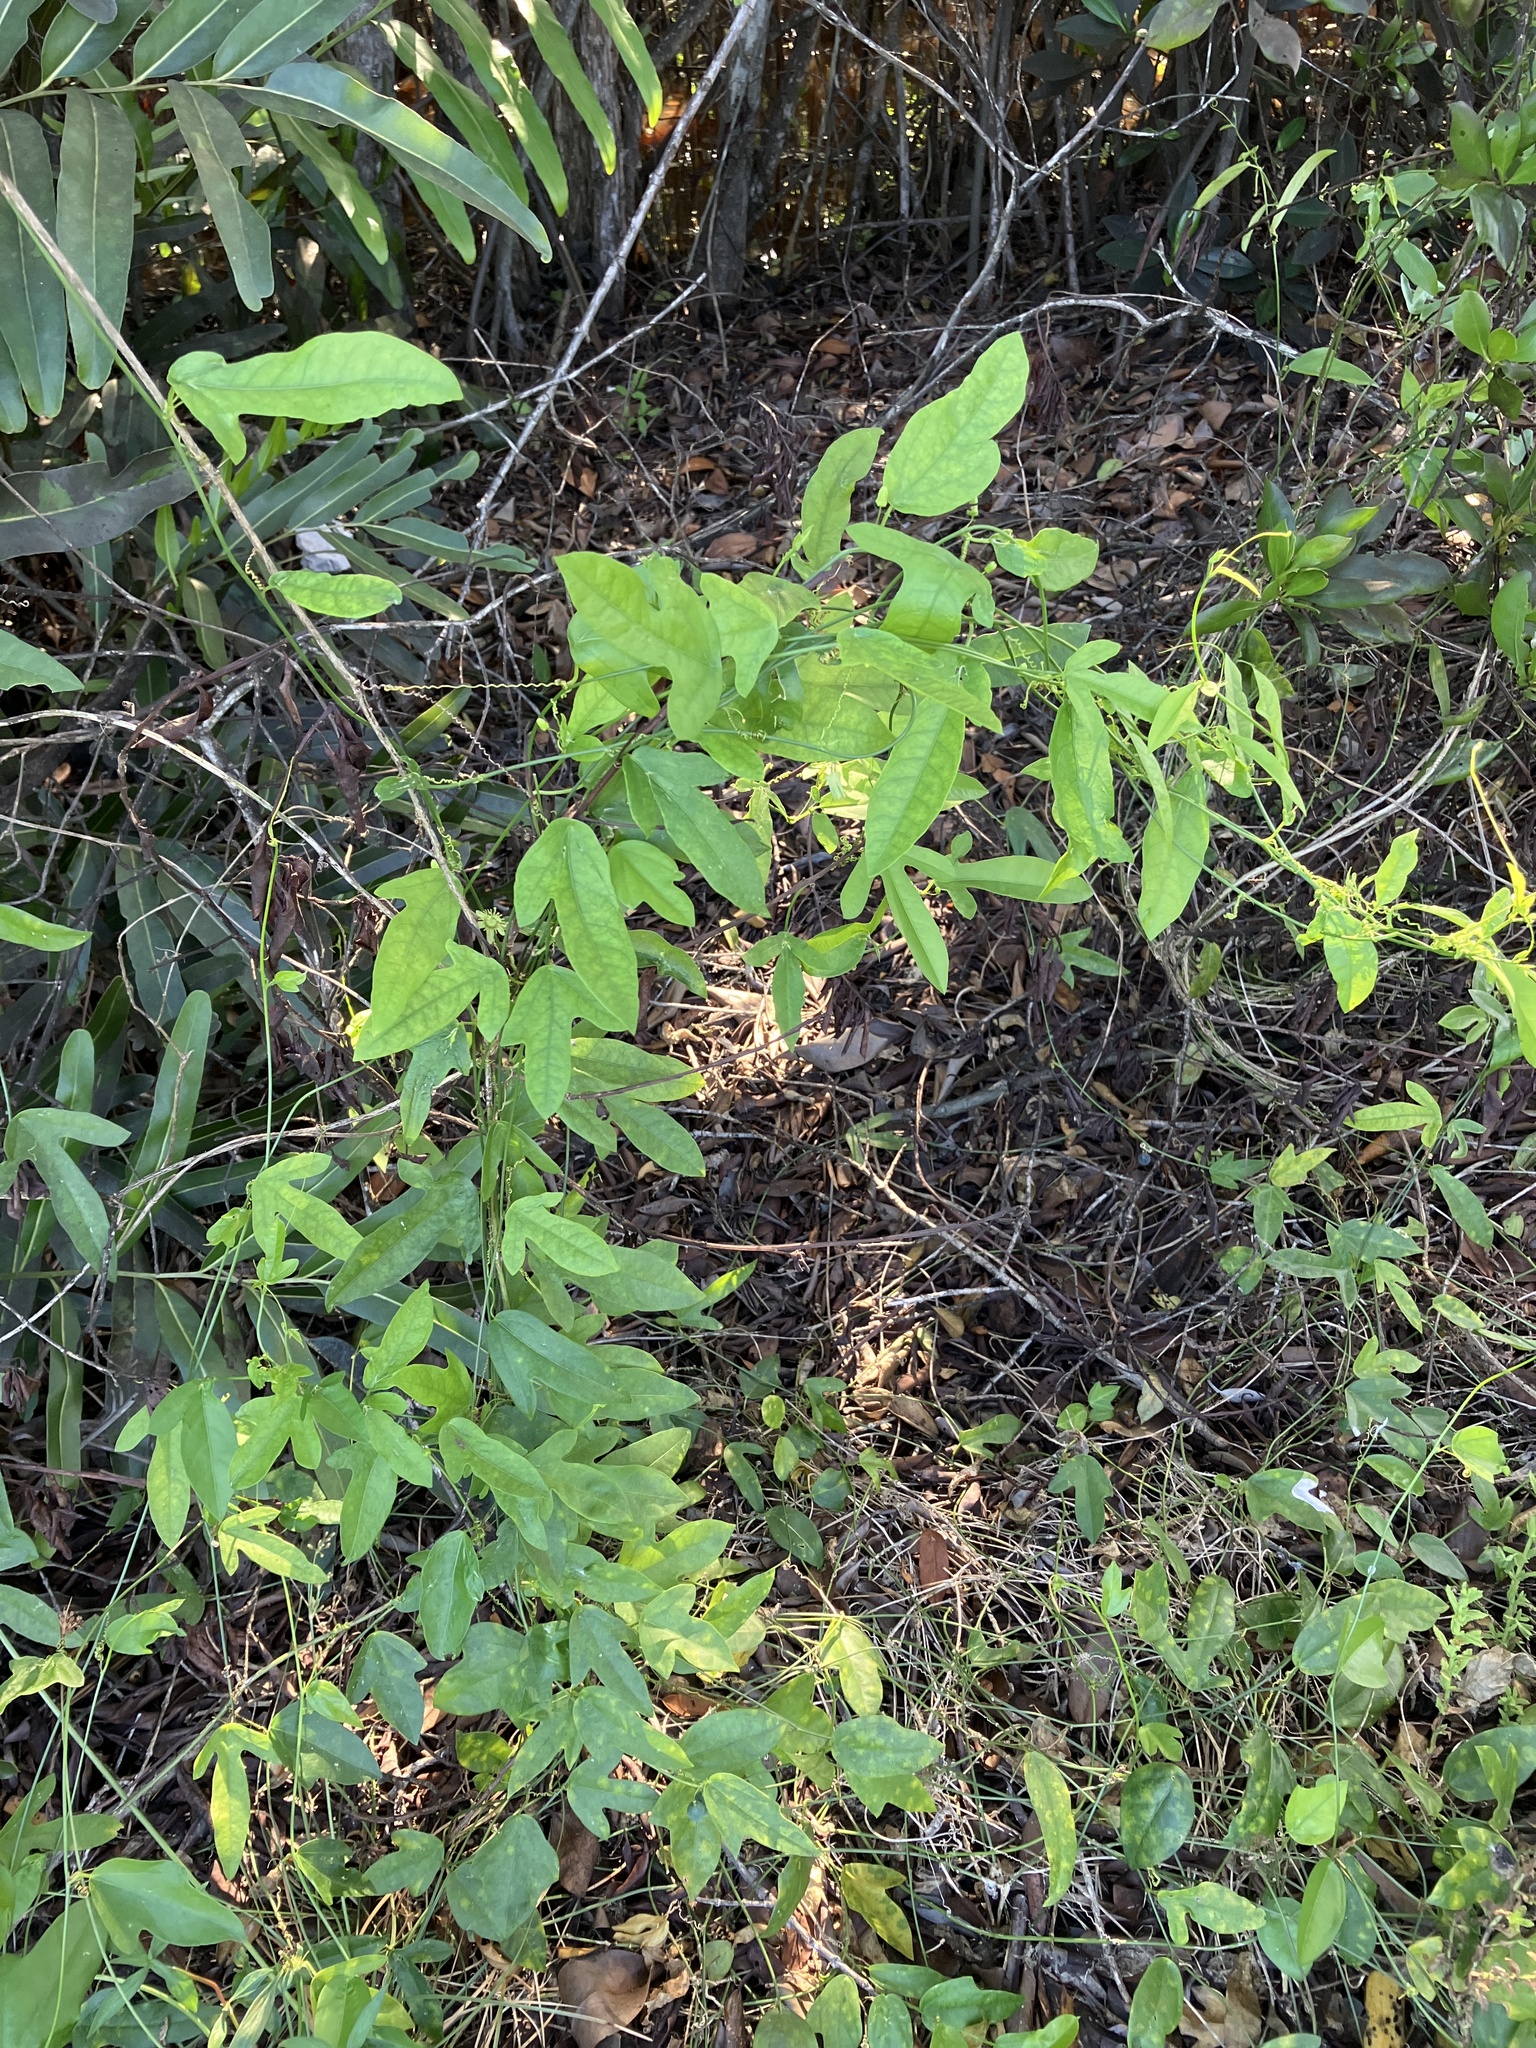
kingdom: Plantae
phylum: Tracheophyta
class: Magnoliopsida
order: Malpighiales
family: Passifloraceae
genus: Passiflora
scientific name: Passiflora pallida
